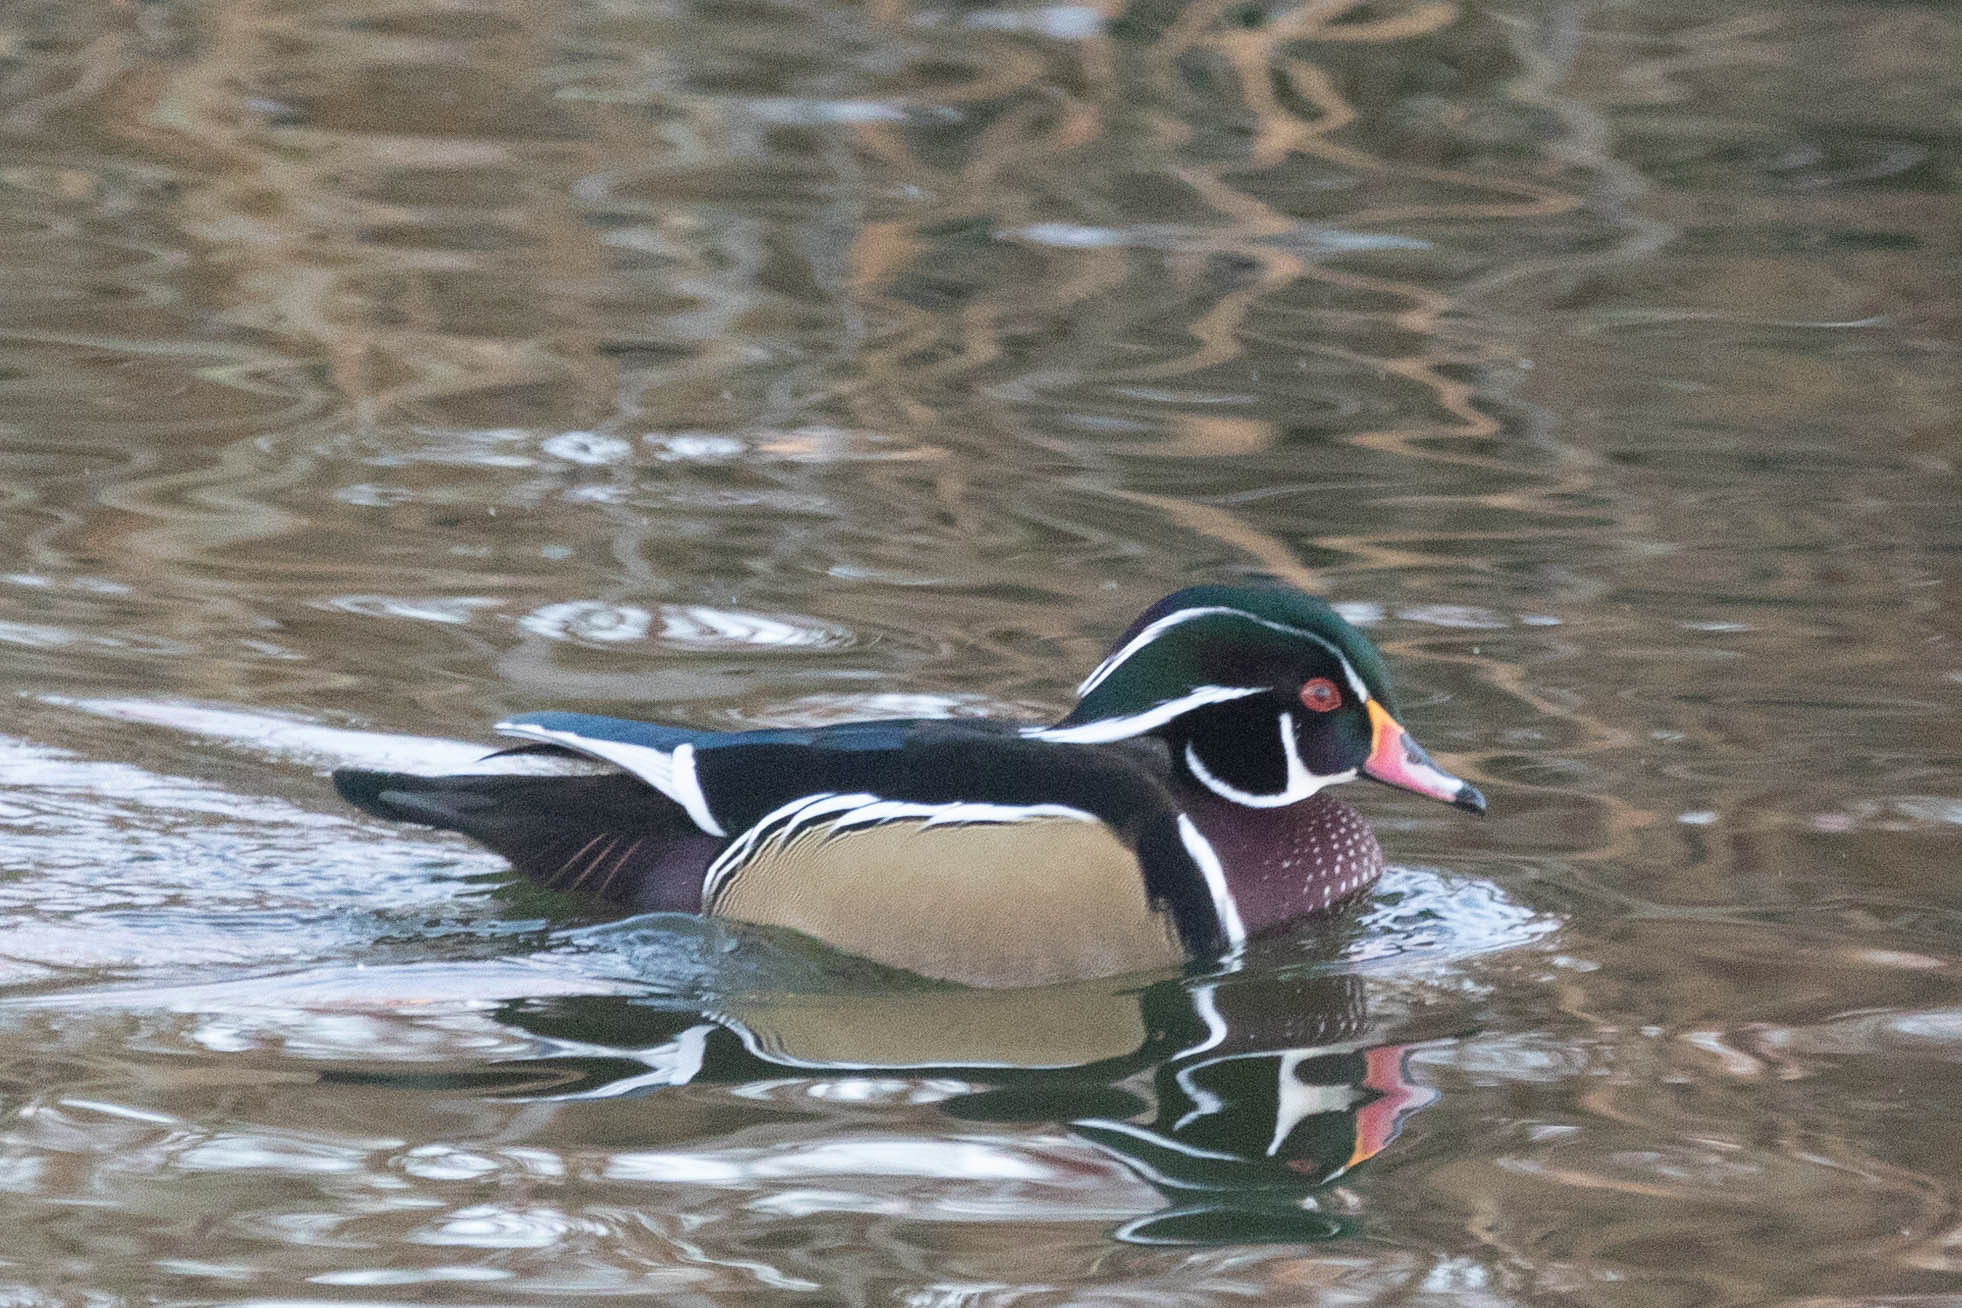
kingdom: Animalia
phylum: Chordata
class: Aves
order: Anseriformes
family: Anatidae
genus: Aix
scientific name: Aix sponsa
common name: Wood duck
